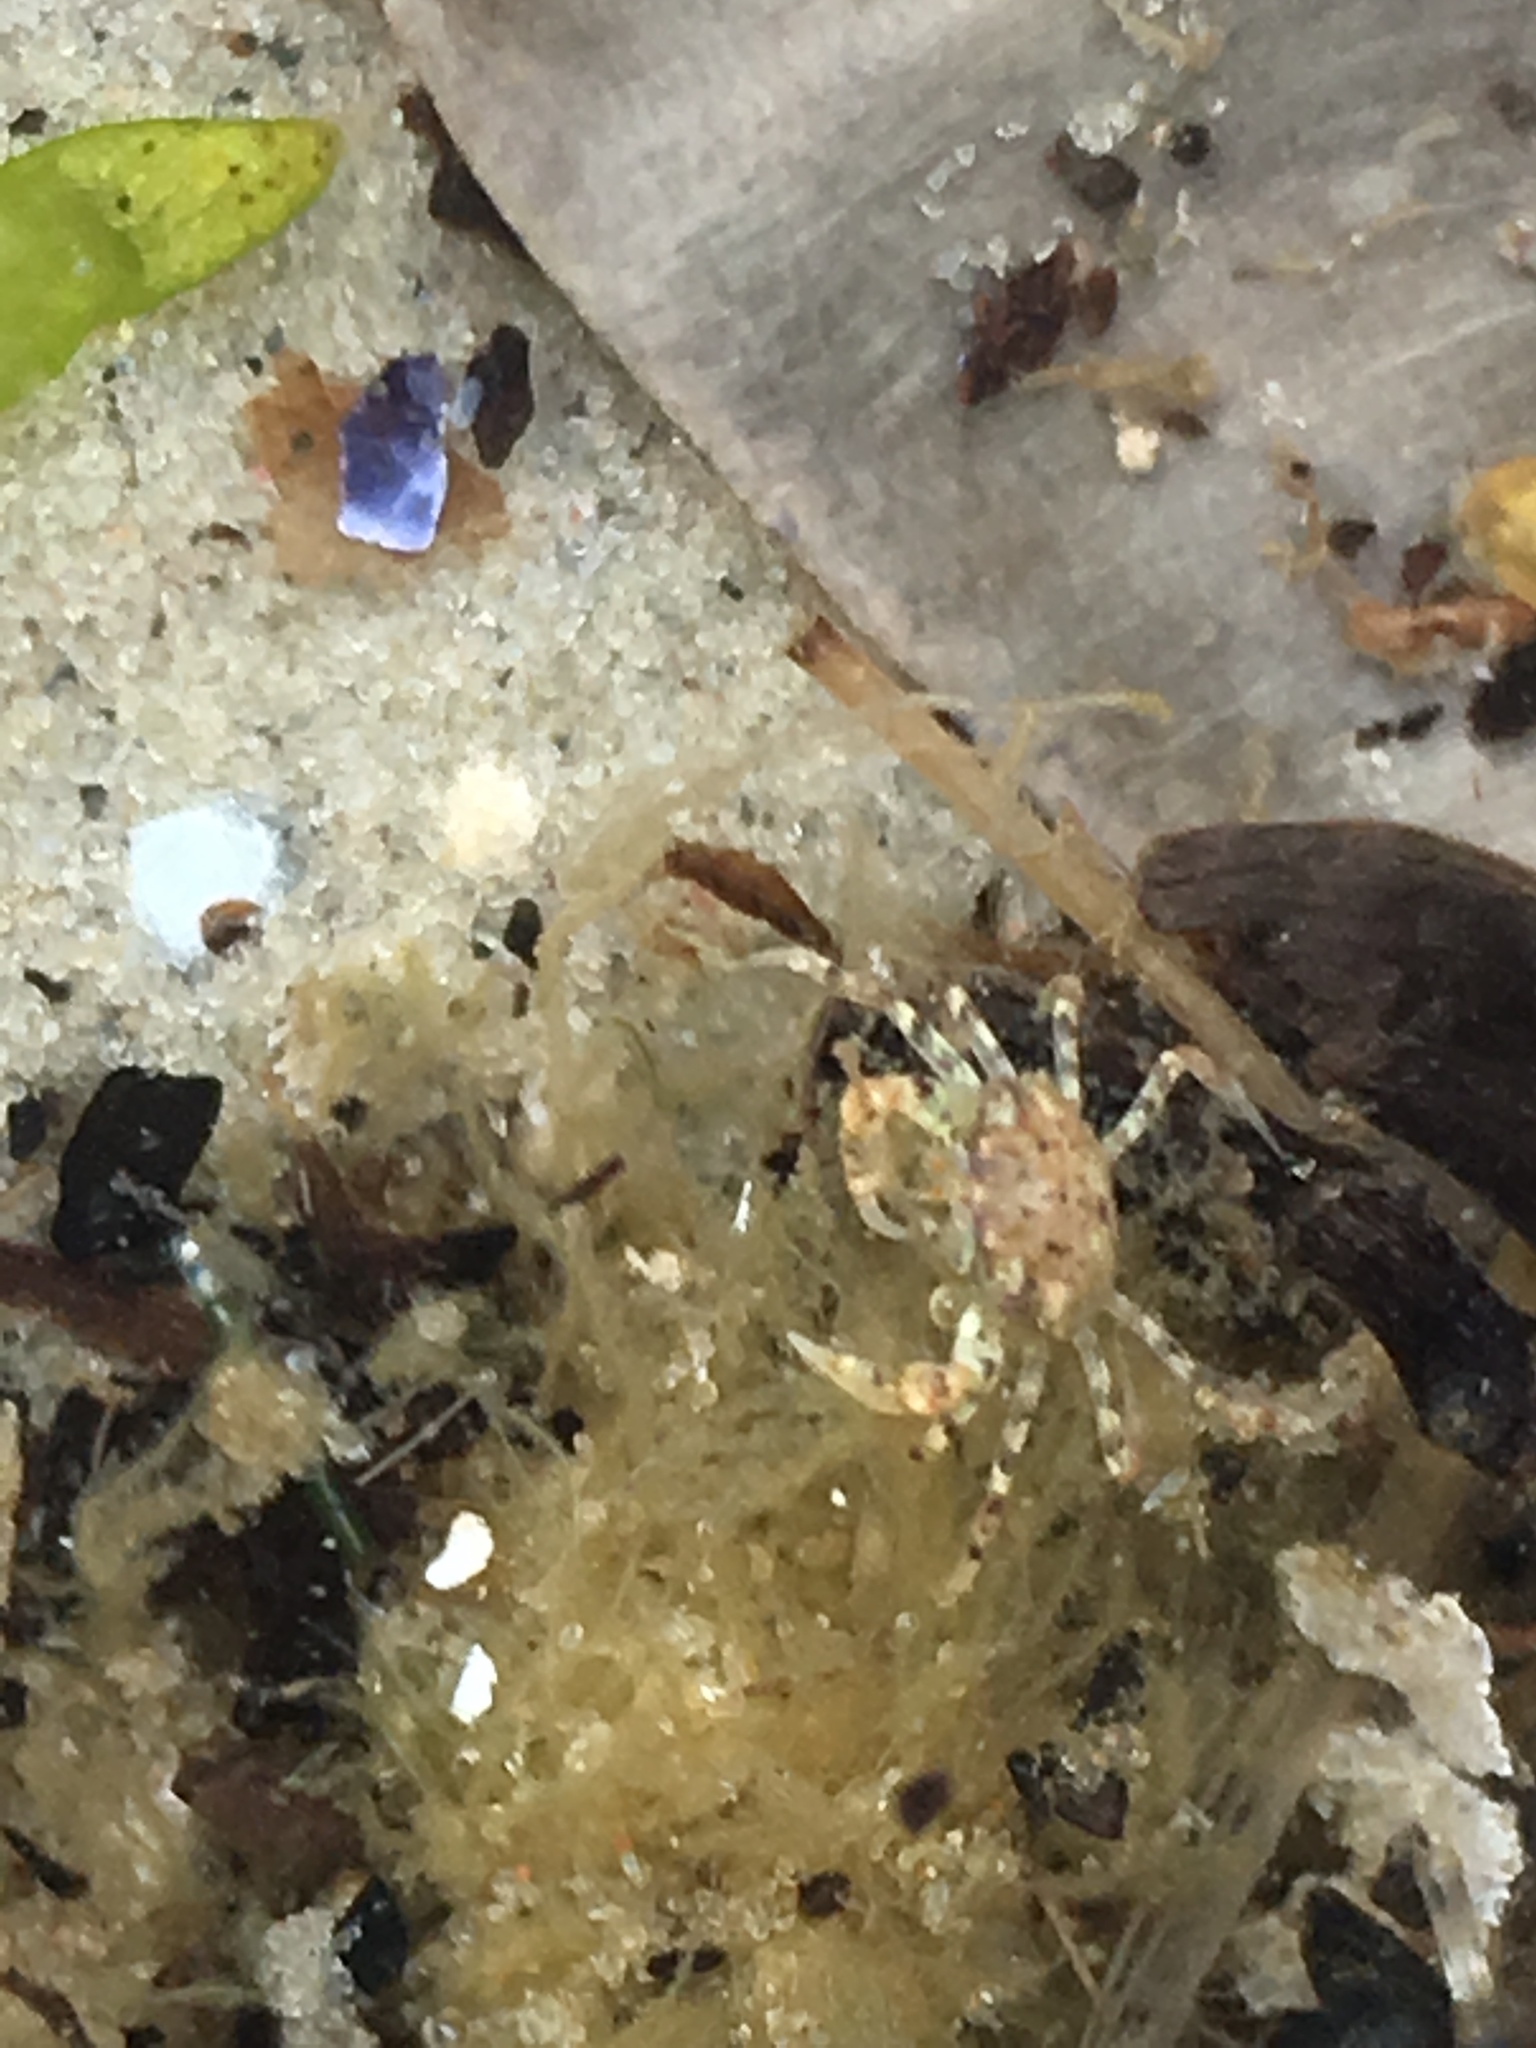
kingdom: Animalia
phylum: Arthropoda
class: Malacostraca
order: Decapoda
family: Panopeidae
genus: Rhithropanopeus
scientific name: Rhithropanopeus harrisii
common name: Dwarf crab
